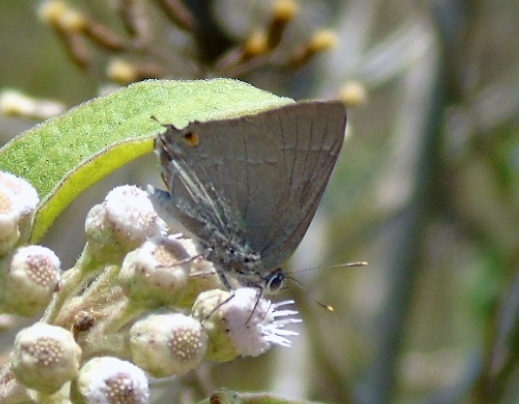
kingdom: Animalia
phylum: Arthropoda
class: Insecta
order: Lepidoptera
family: Lycaenidae
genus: Thecla
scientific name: Thecla marius
